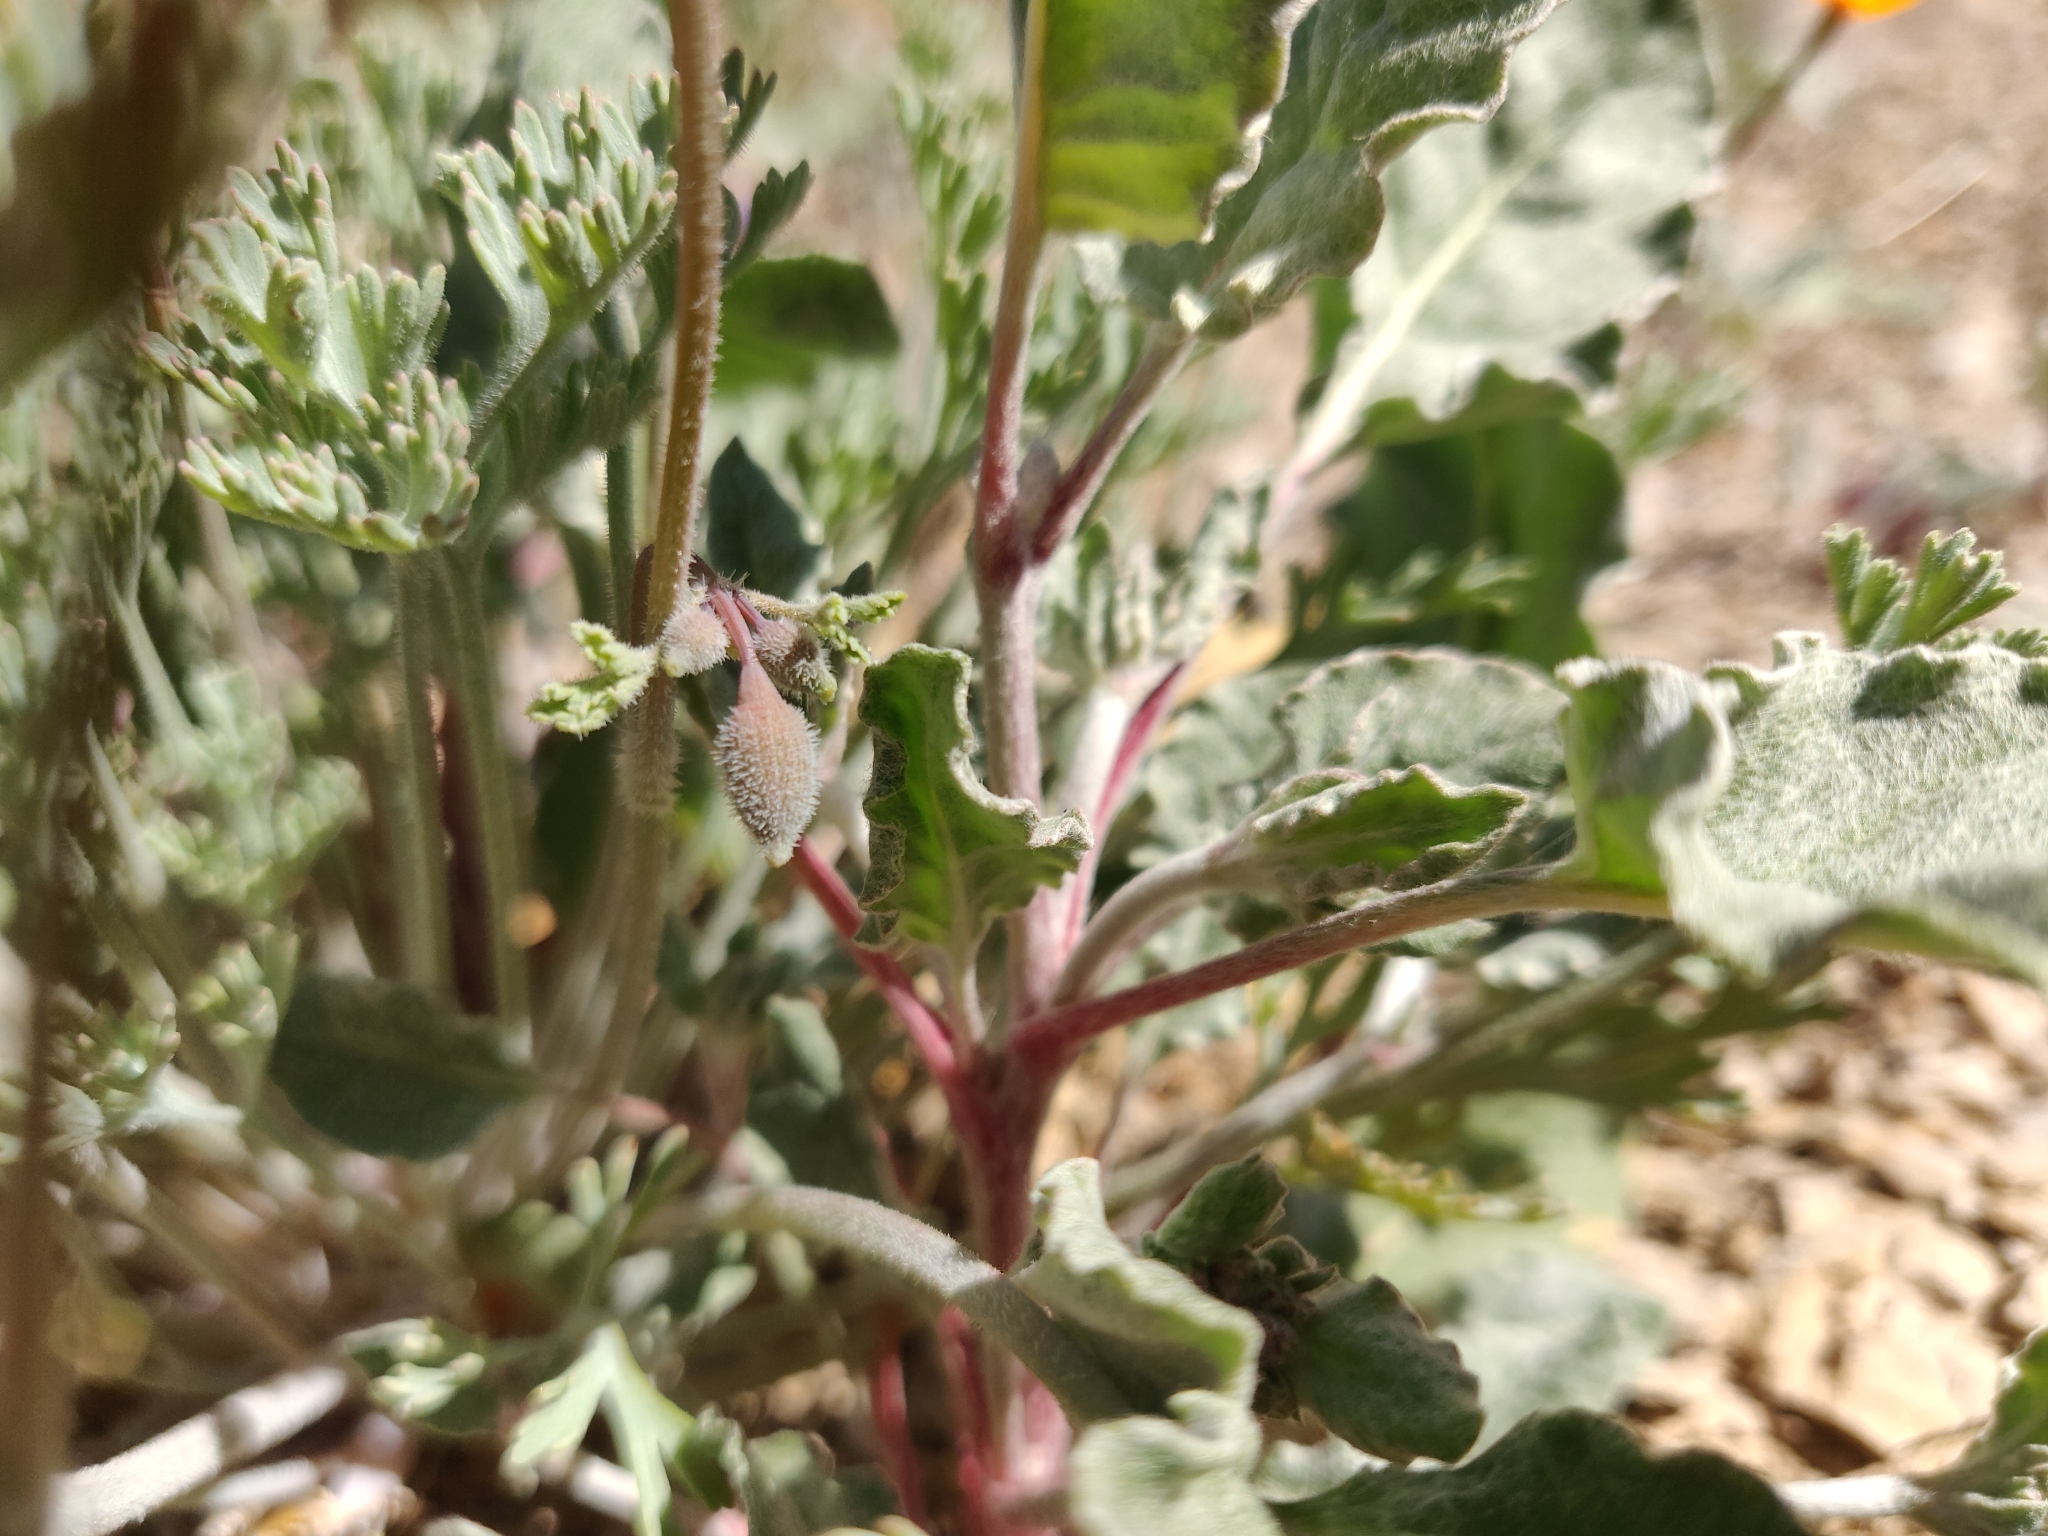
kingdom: Plantae
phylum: Tracheophyta
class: Magnoliopsida
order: Ranunculales
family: Papaveraceae
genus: Eschscholzia
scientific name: Eschscholzia hypecoides
